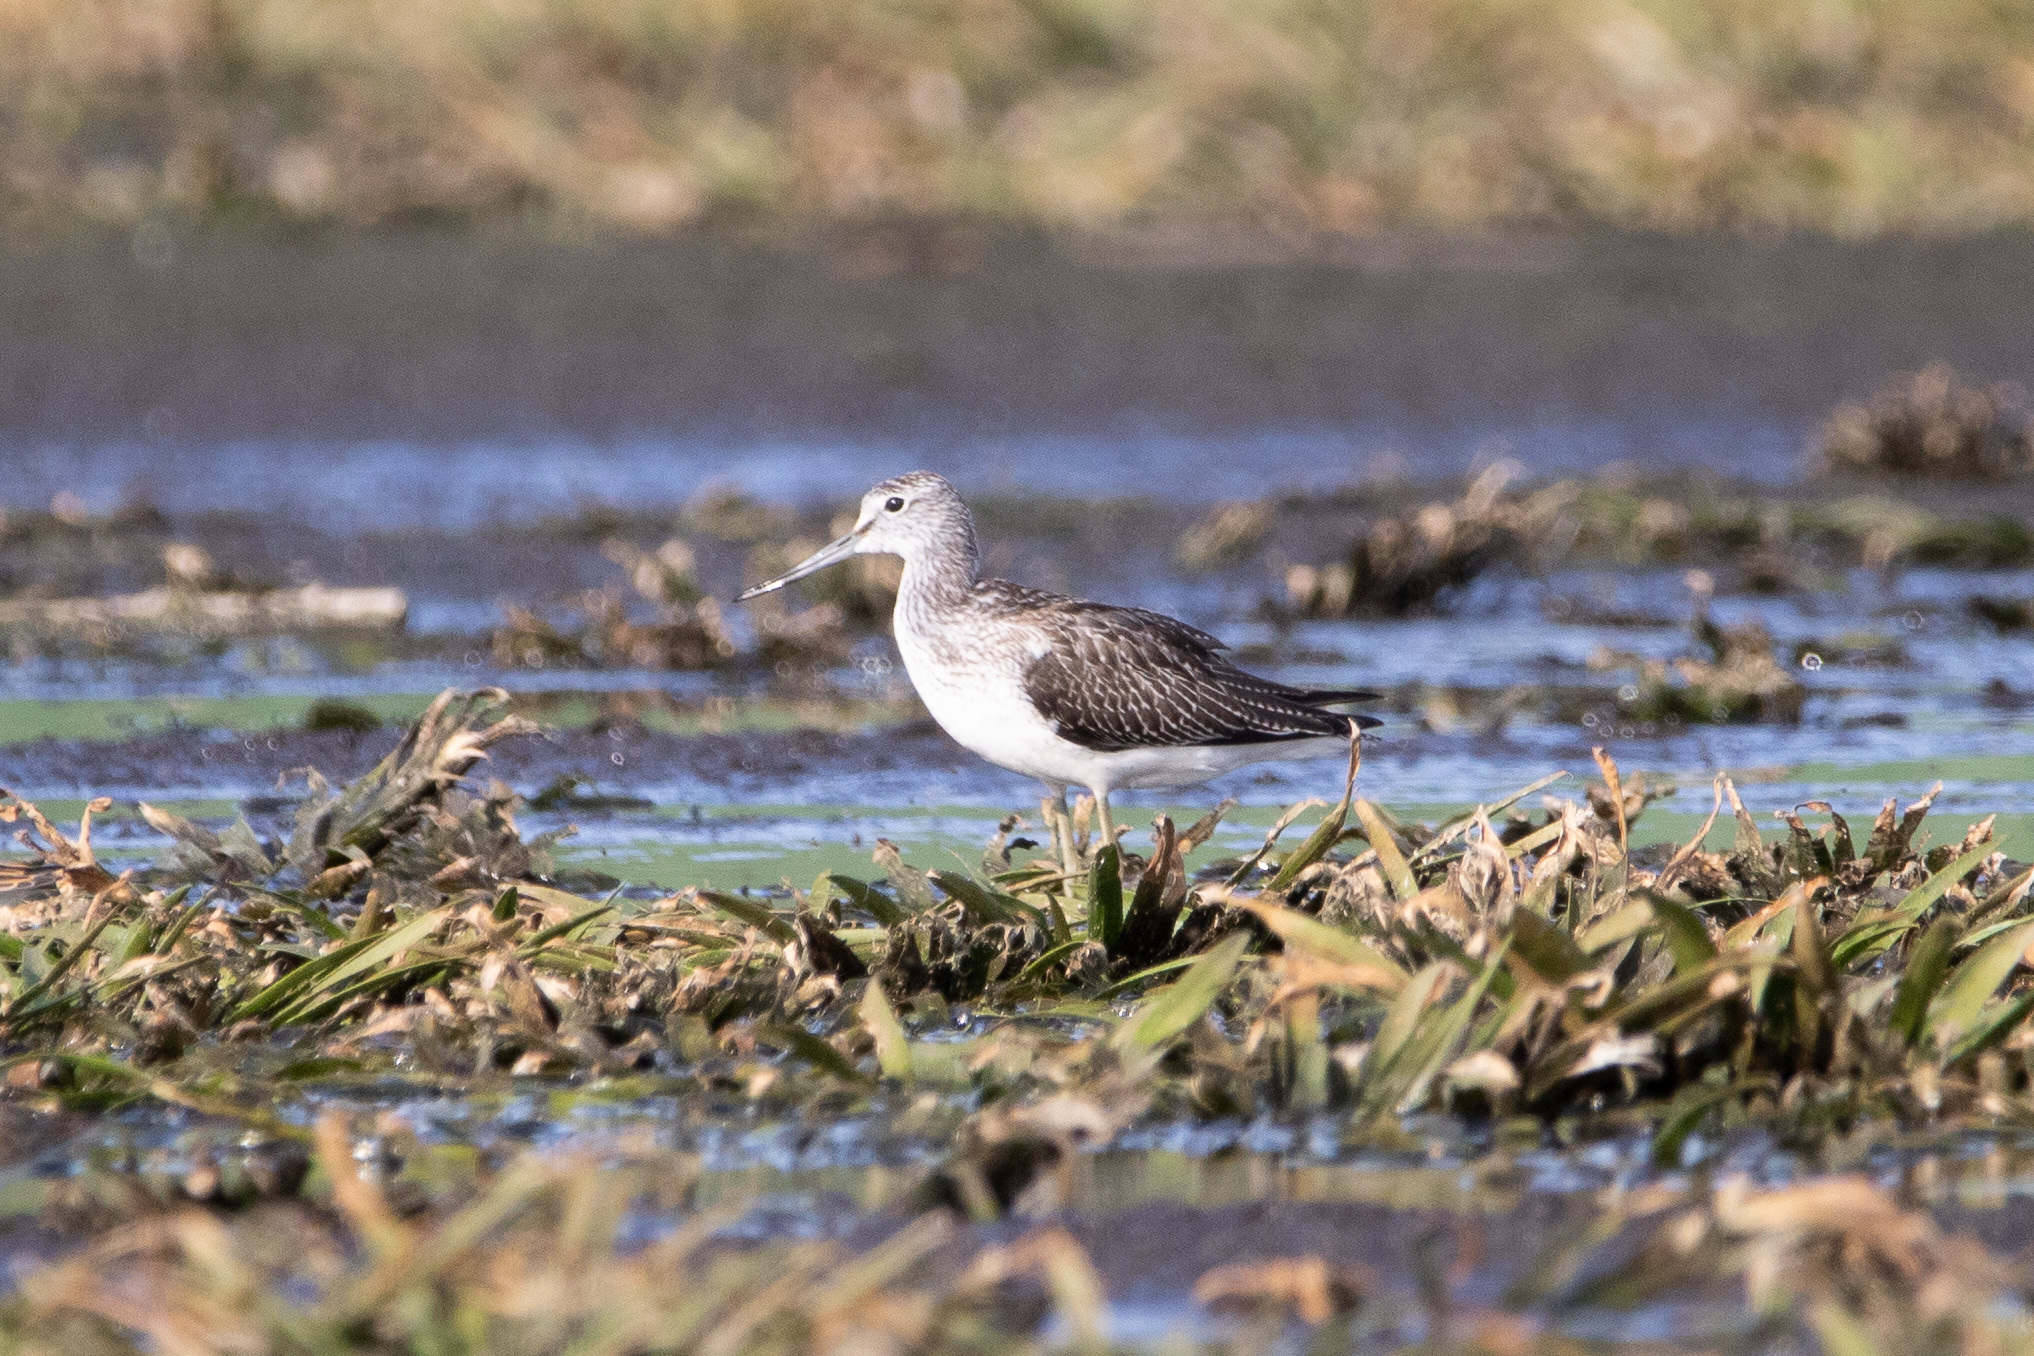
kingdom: Animalia
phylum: Chordata
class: Aves
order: Charadriiformes
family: Scolopacidae
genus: Tringa
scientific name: Tringa nebularia
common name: Common greenshank
